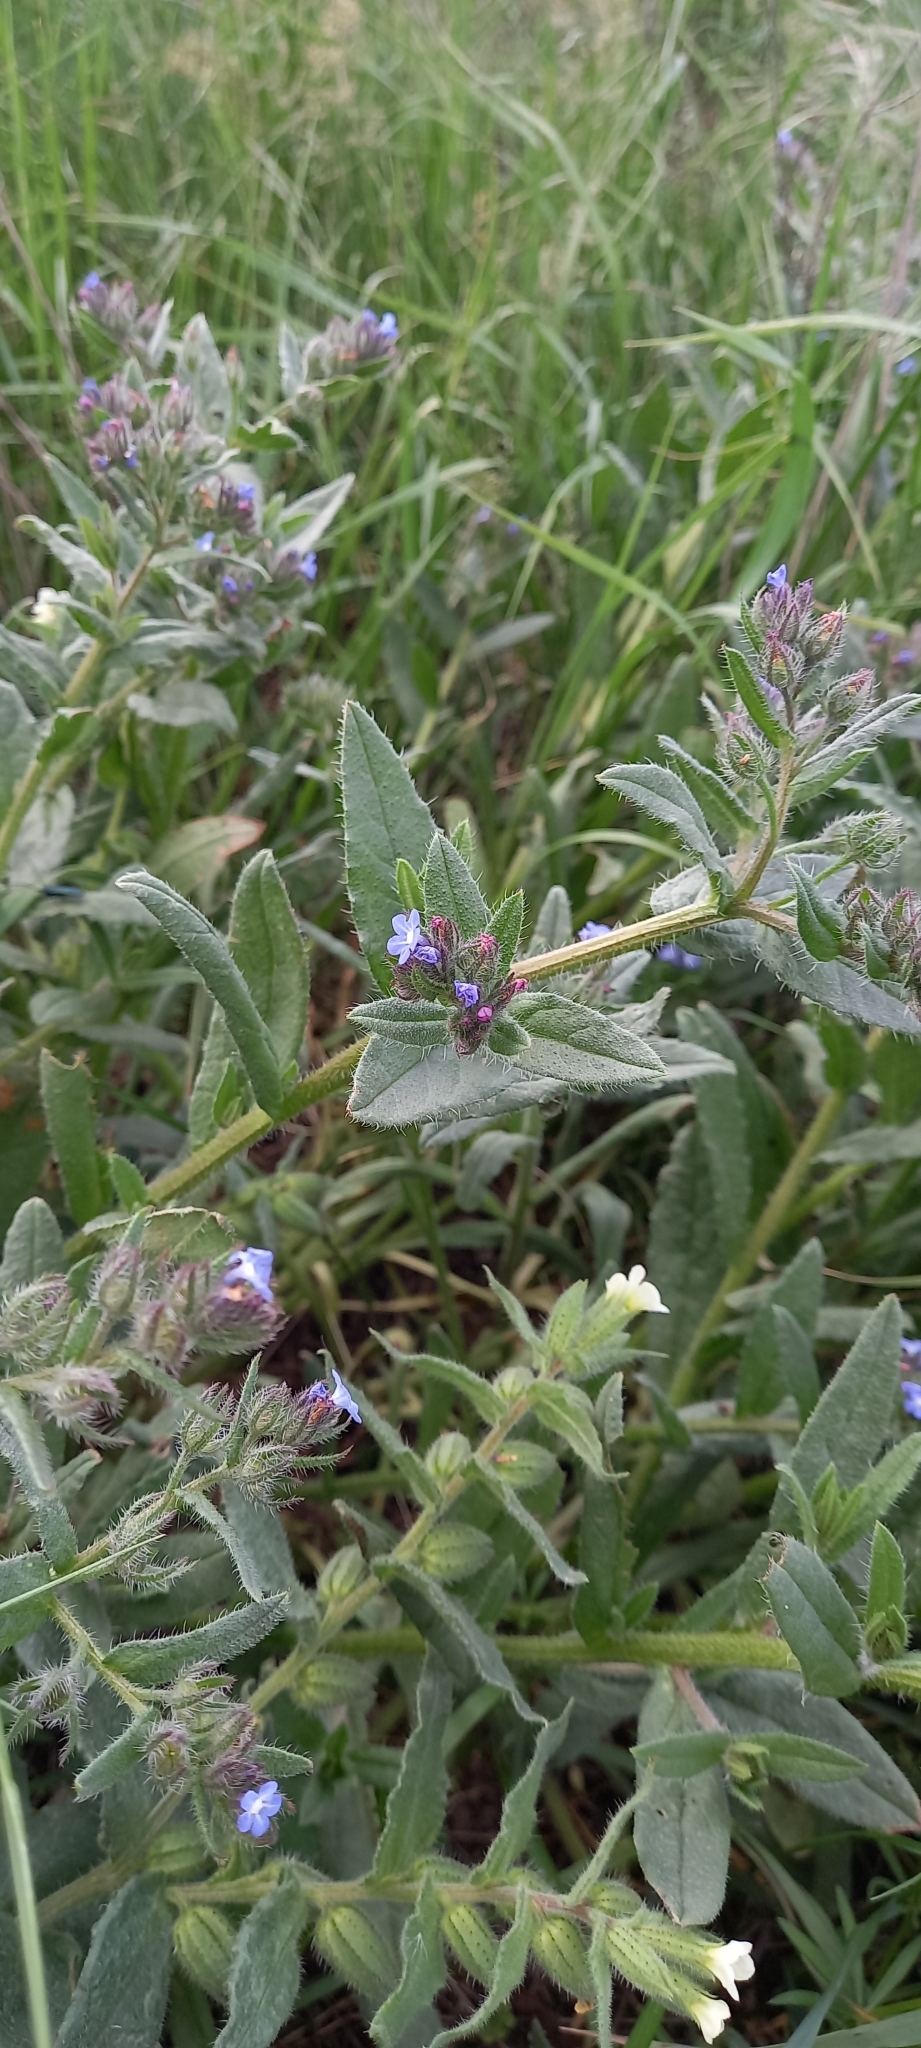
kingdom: Plantae
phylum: Tracheophyta
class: Magnoliopsida
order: Boraginales
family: Boraginaceae
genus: Nonea
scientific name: Nonea lutea
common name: Yellow nonea
